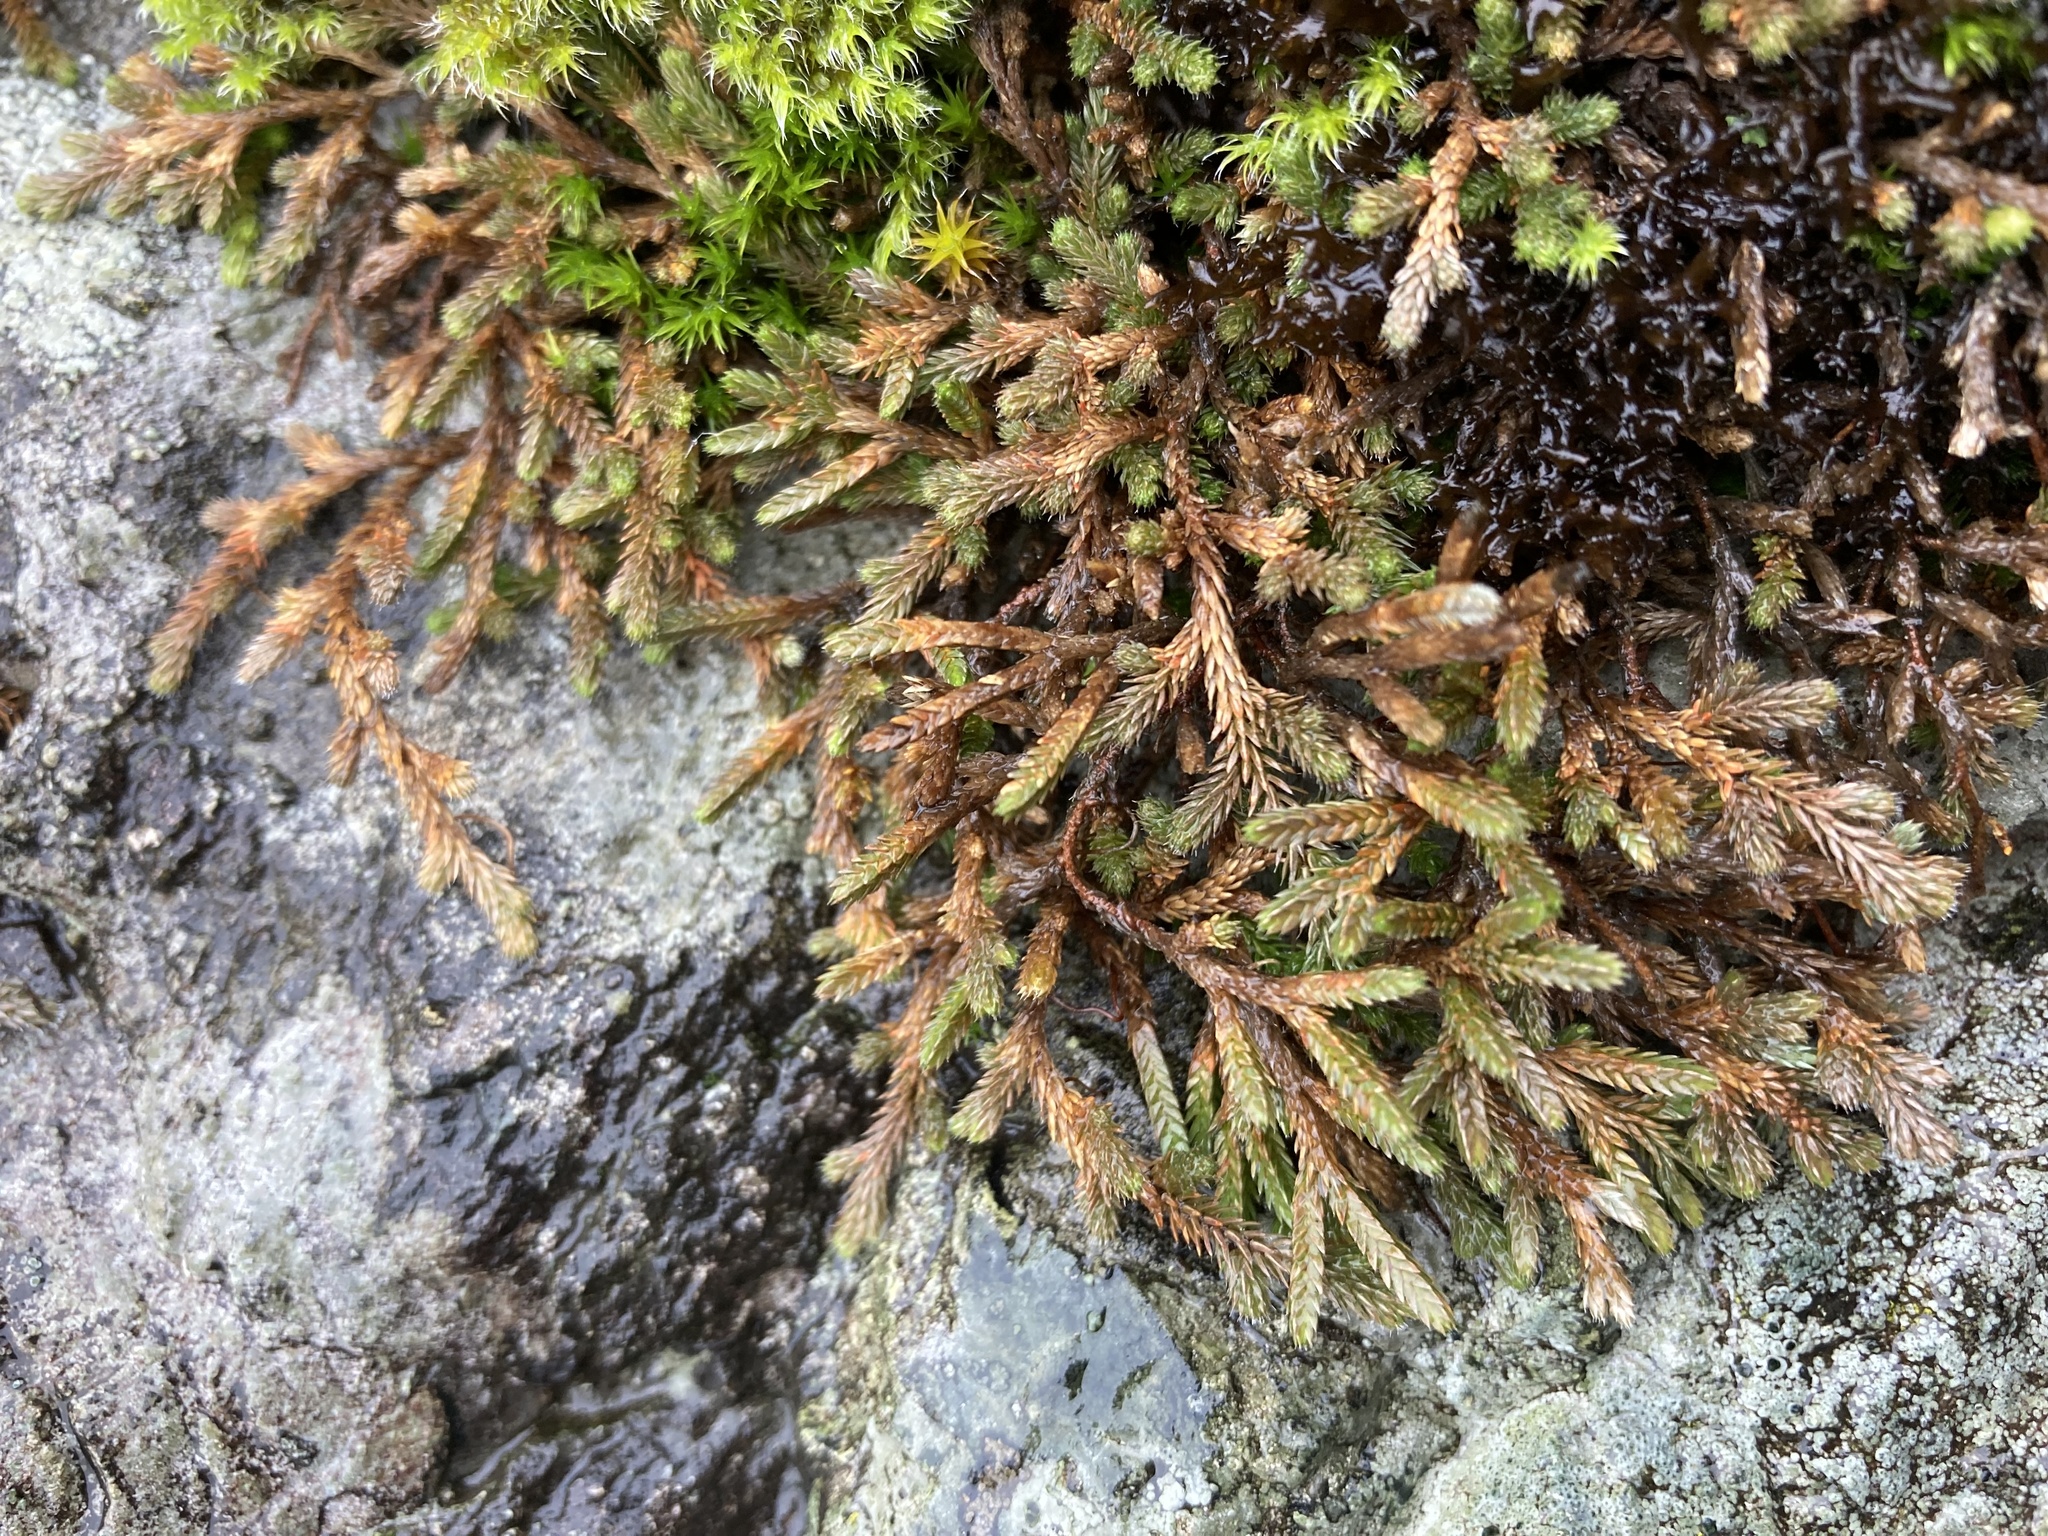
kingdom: Plantae
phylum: Tracheophyta
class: Lycopodiopsida
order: Selaginellales
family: Selaginellaceae
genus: Selaginella
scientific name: Selaginella wallacei
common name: Wallace's selaginella
